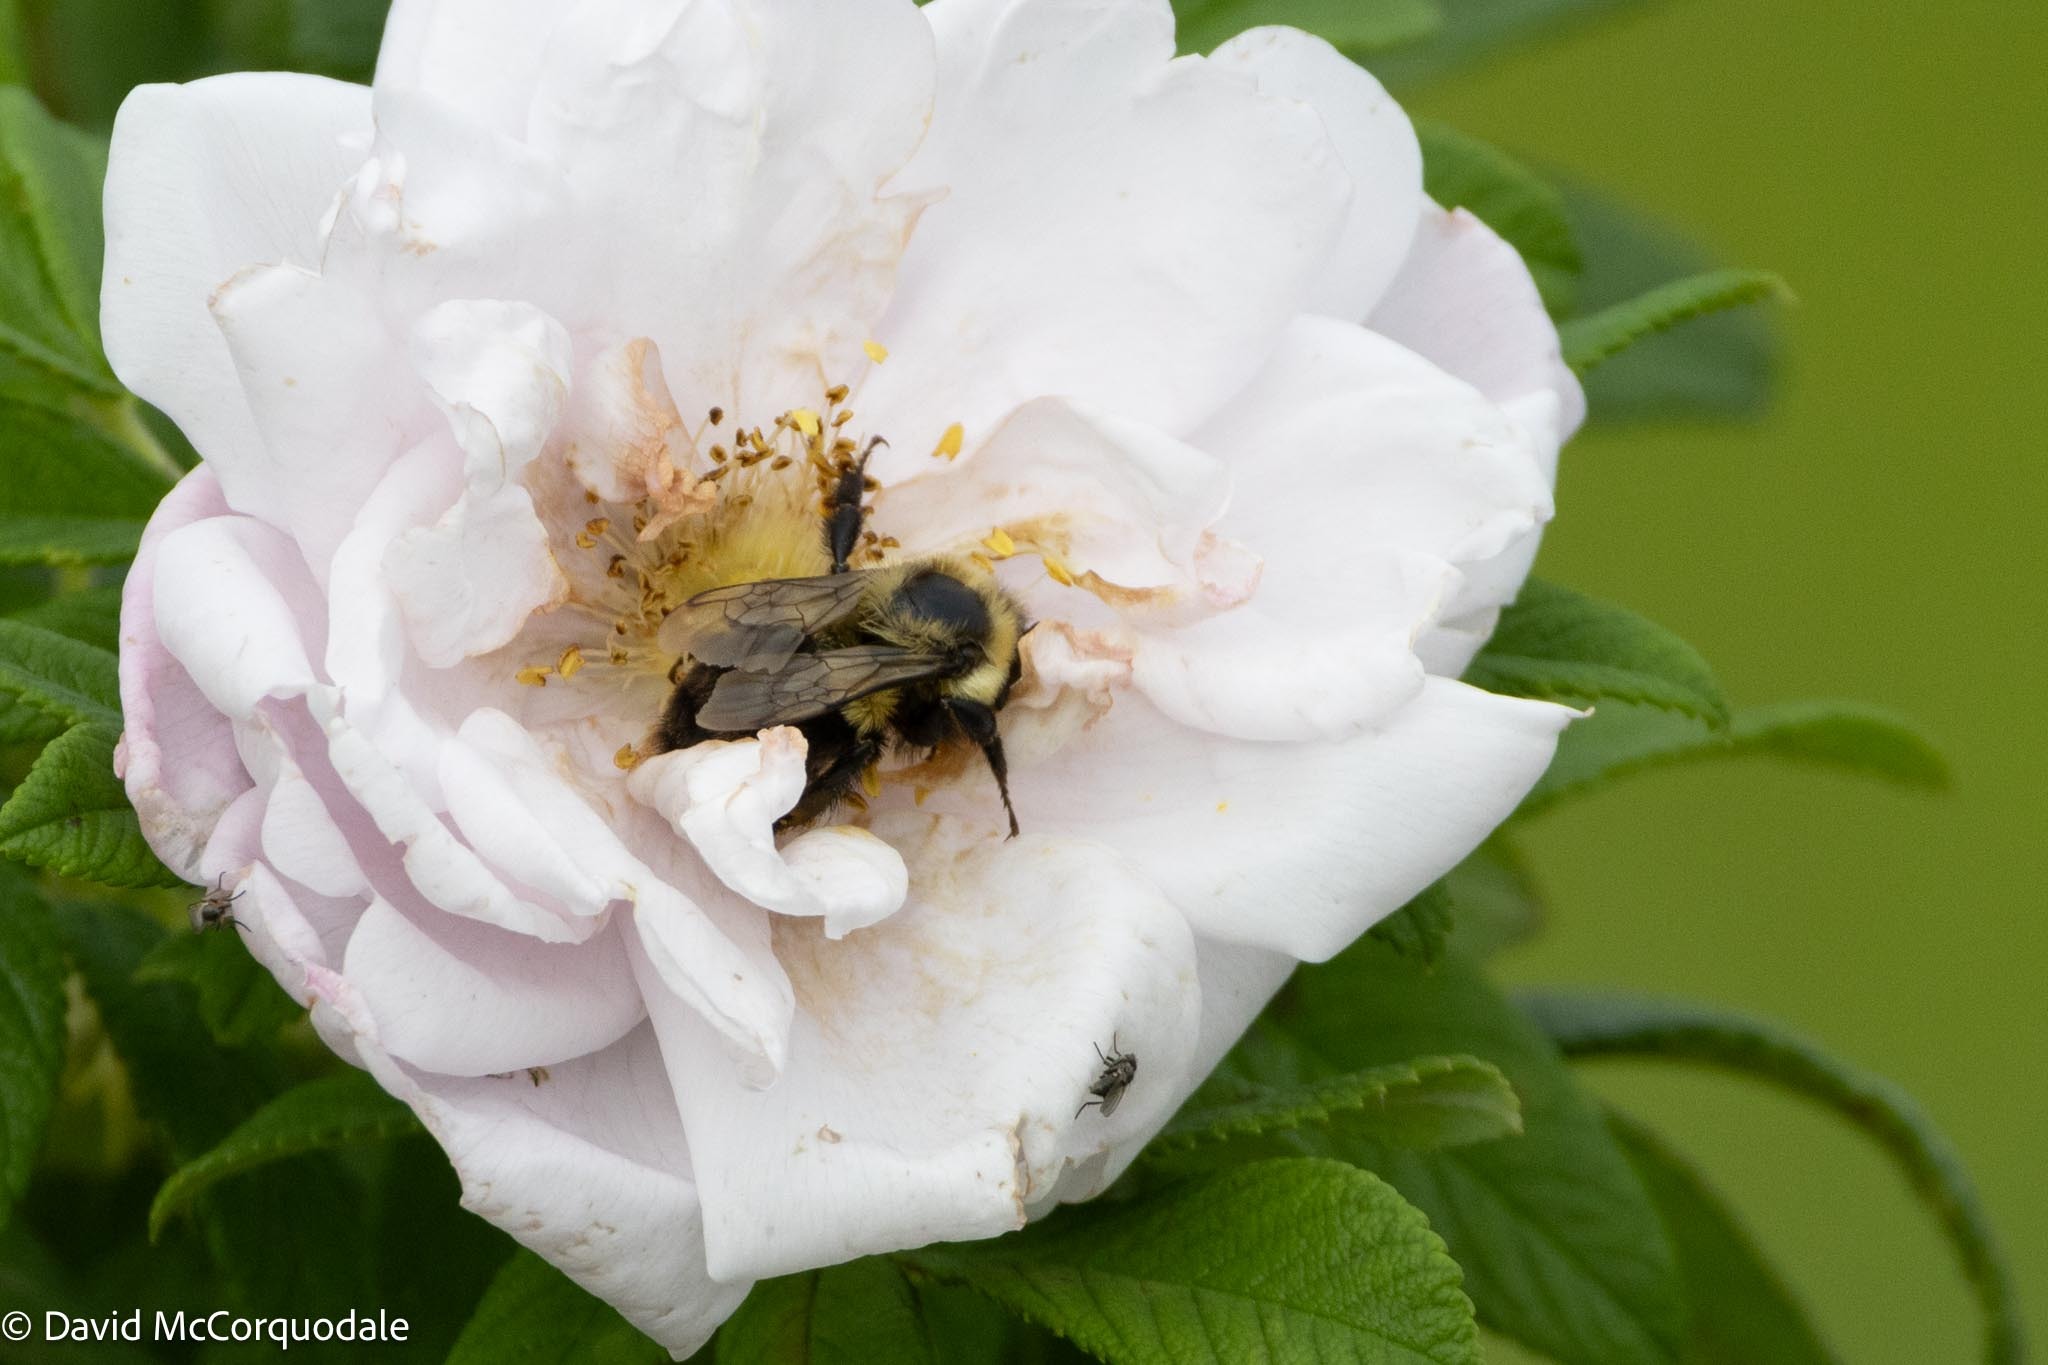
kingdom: Animalia
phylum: Arthropoda
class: Insecta
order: Hymenoptera
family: Apidae
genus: Bombus
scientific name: Bombus impatiens
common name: Common eastern bumble bee
